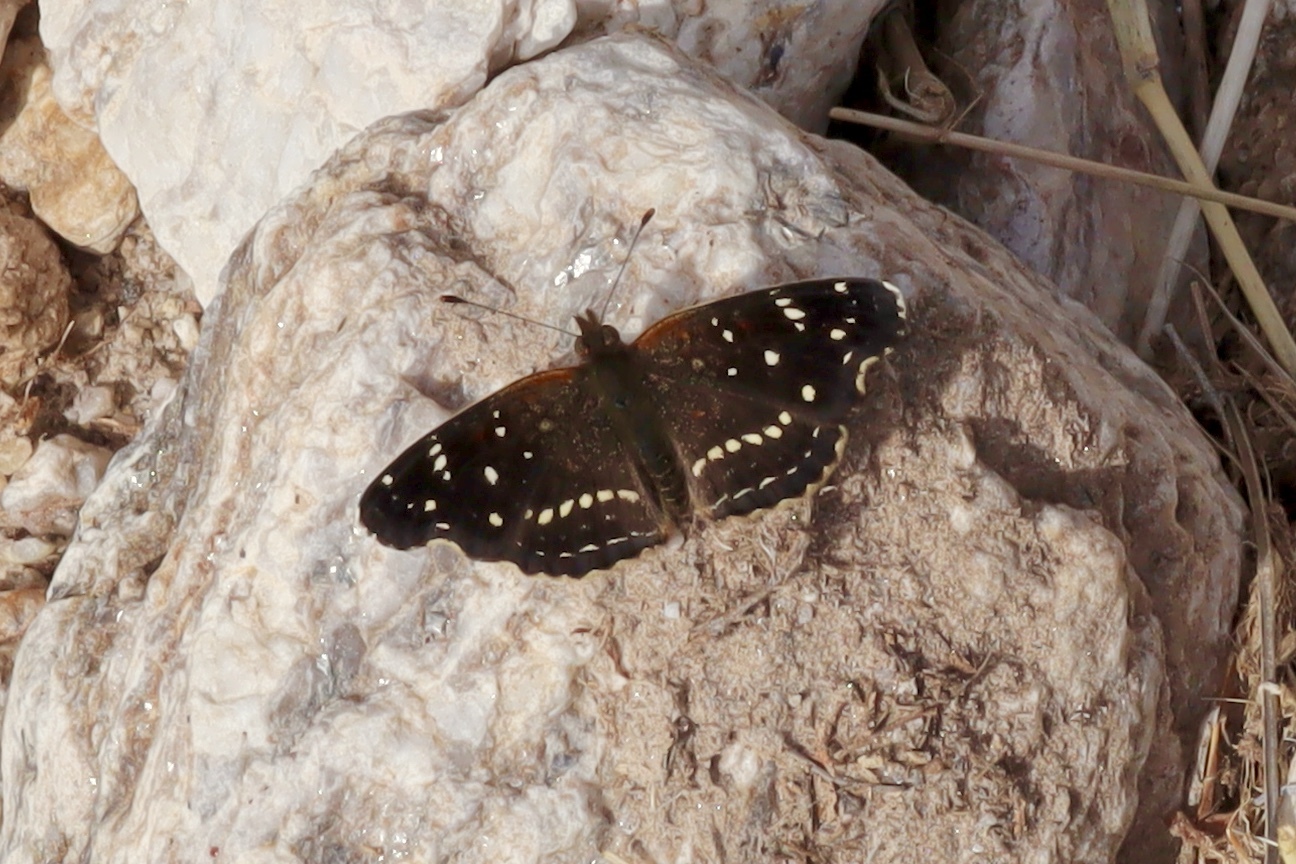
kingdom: Animalia
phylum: Arthropoda
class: Insecta
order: Lepidoptera
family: Nymphalidae
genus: Anthanassa
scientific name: Anthanassa texana
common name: Texan crescent
